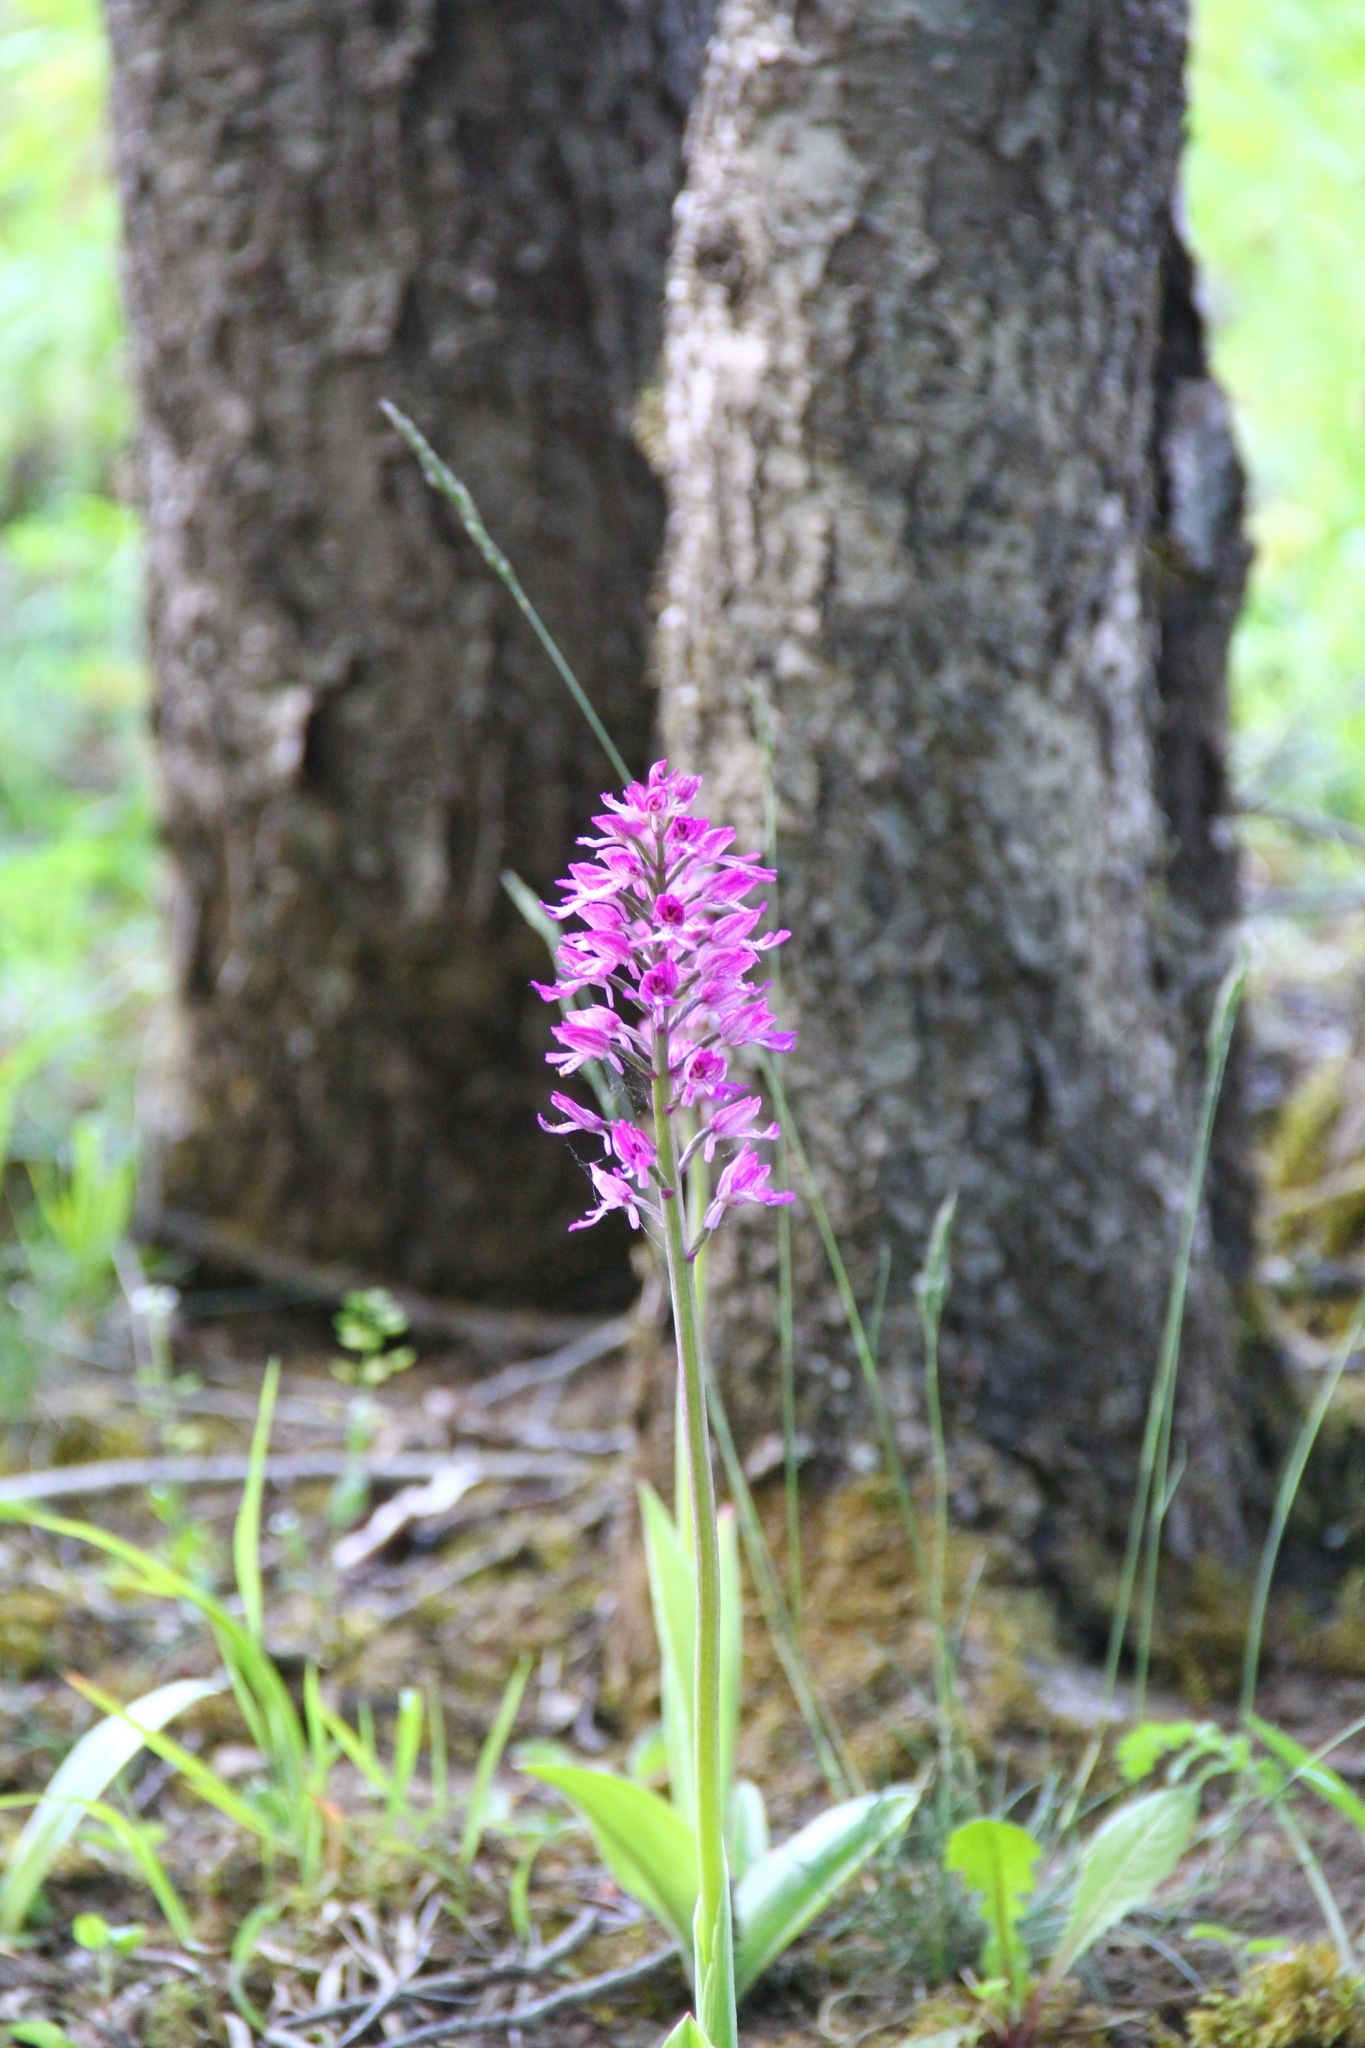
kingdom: Plantae
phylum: Tracheophyta
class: Liliopsida
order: Asparagales
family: Orchidaceae
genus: Orchis
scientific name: Orchis angusticruris
